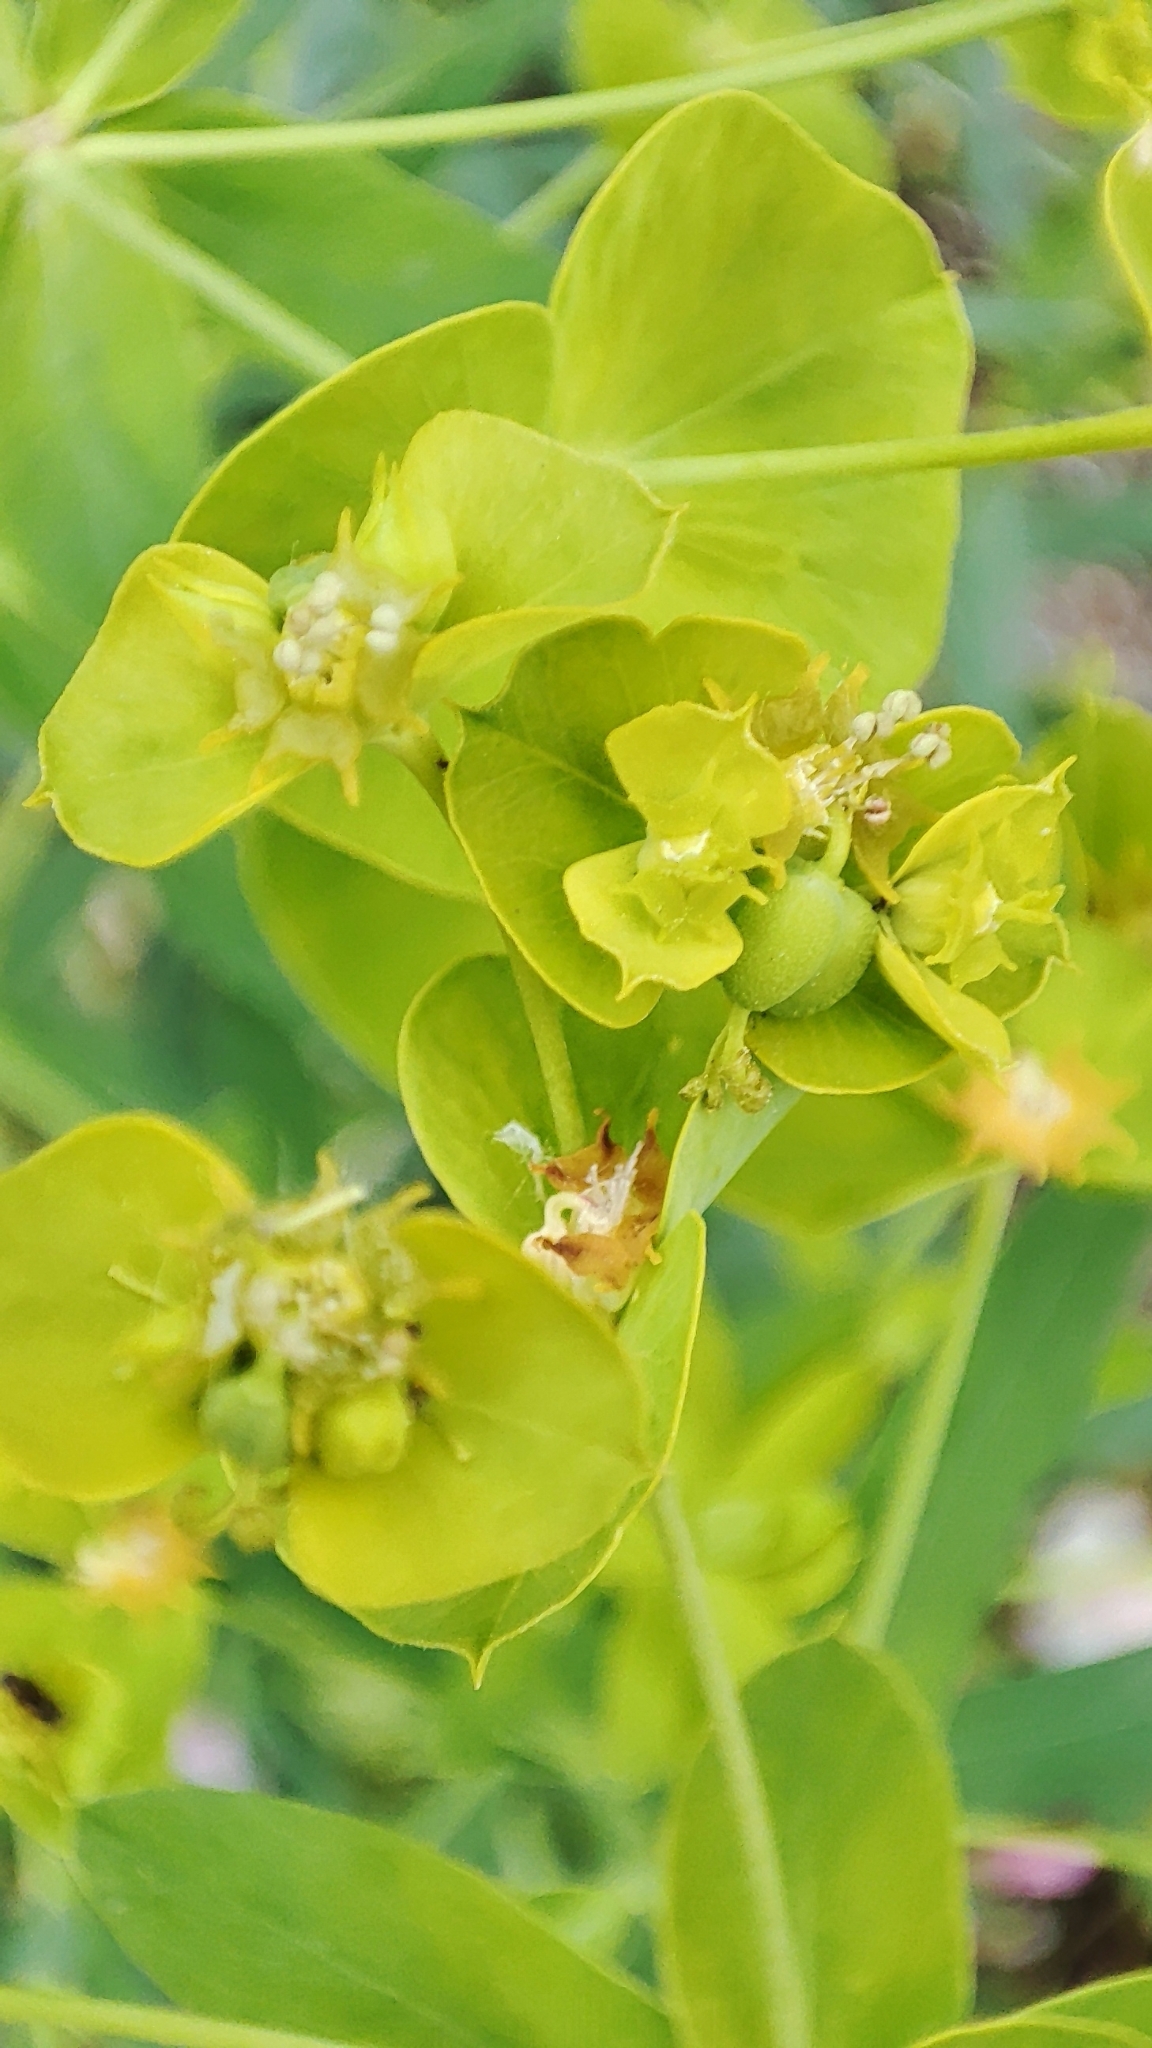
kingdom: Plantae
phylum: Tracheophyta
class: Magnoliopsida
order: Malpighiales
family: Euphorbiaceae
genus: Euphorbia
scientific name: Euphorbia virgata
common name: Leafy spurge
